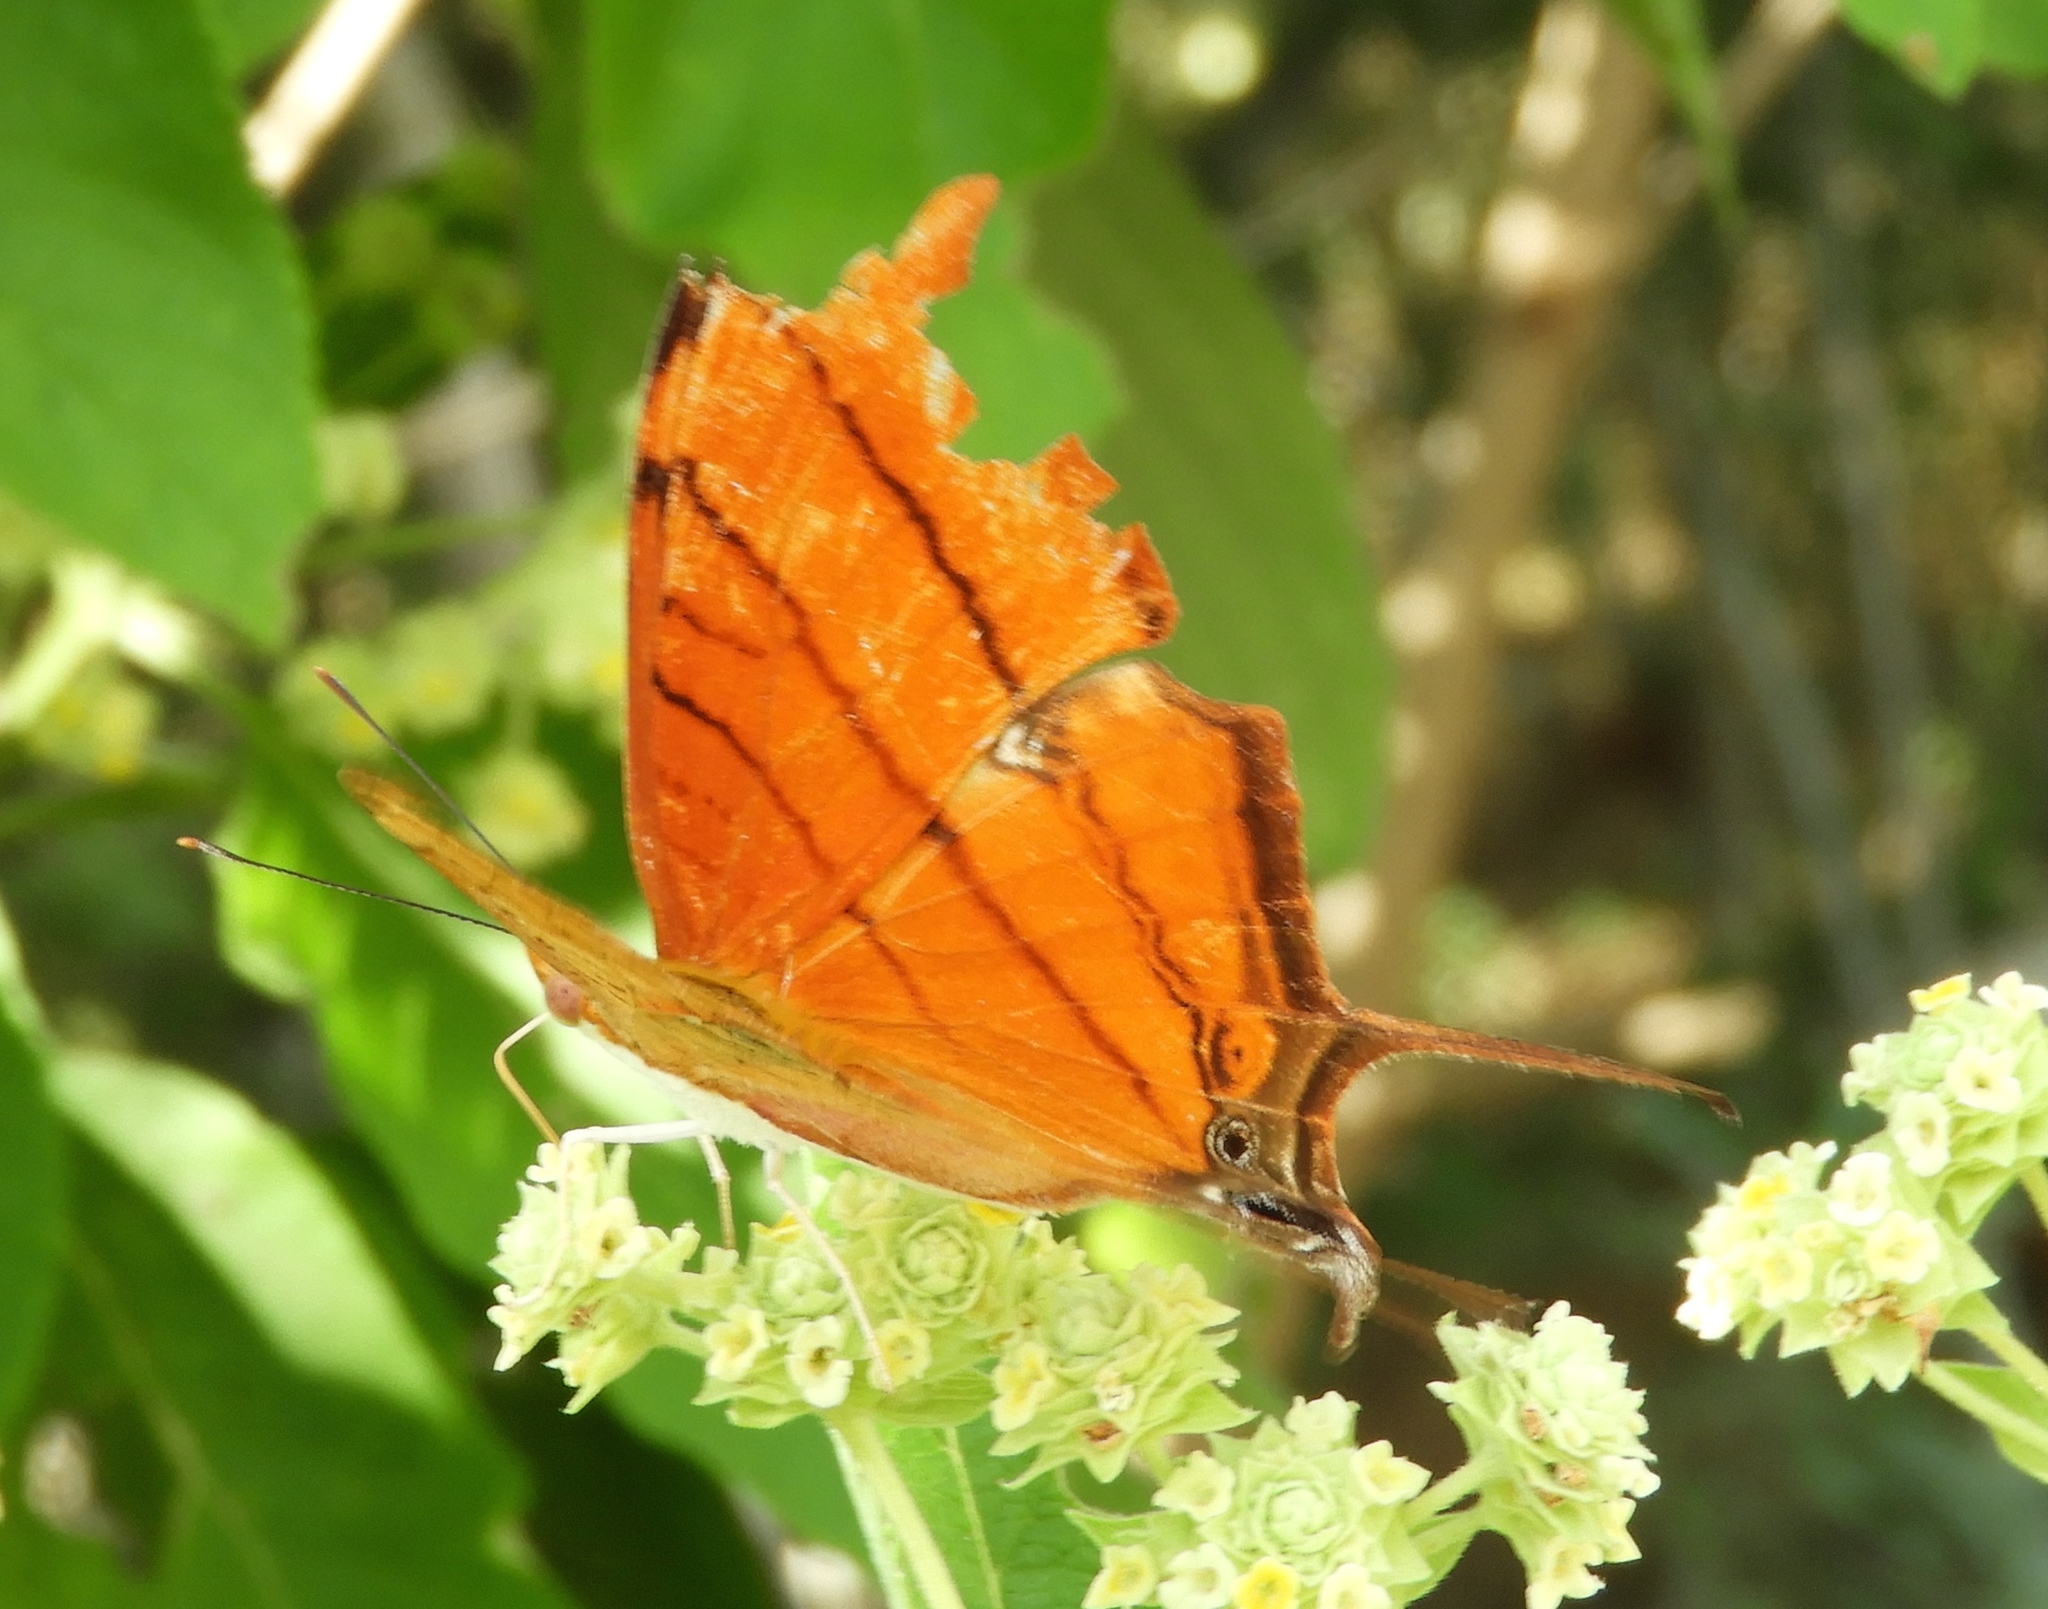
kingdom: Animalia
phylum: Arthropoda
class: Insecta
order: Lepidoptera
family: Nymphalidae
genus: Marpesia
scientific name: Marpesia petreus
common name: Red dagger wing
